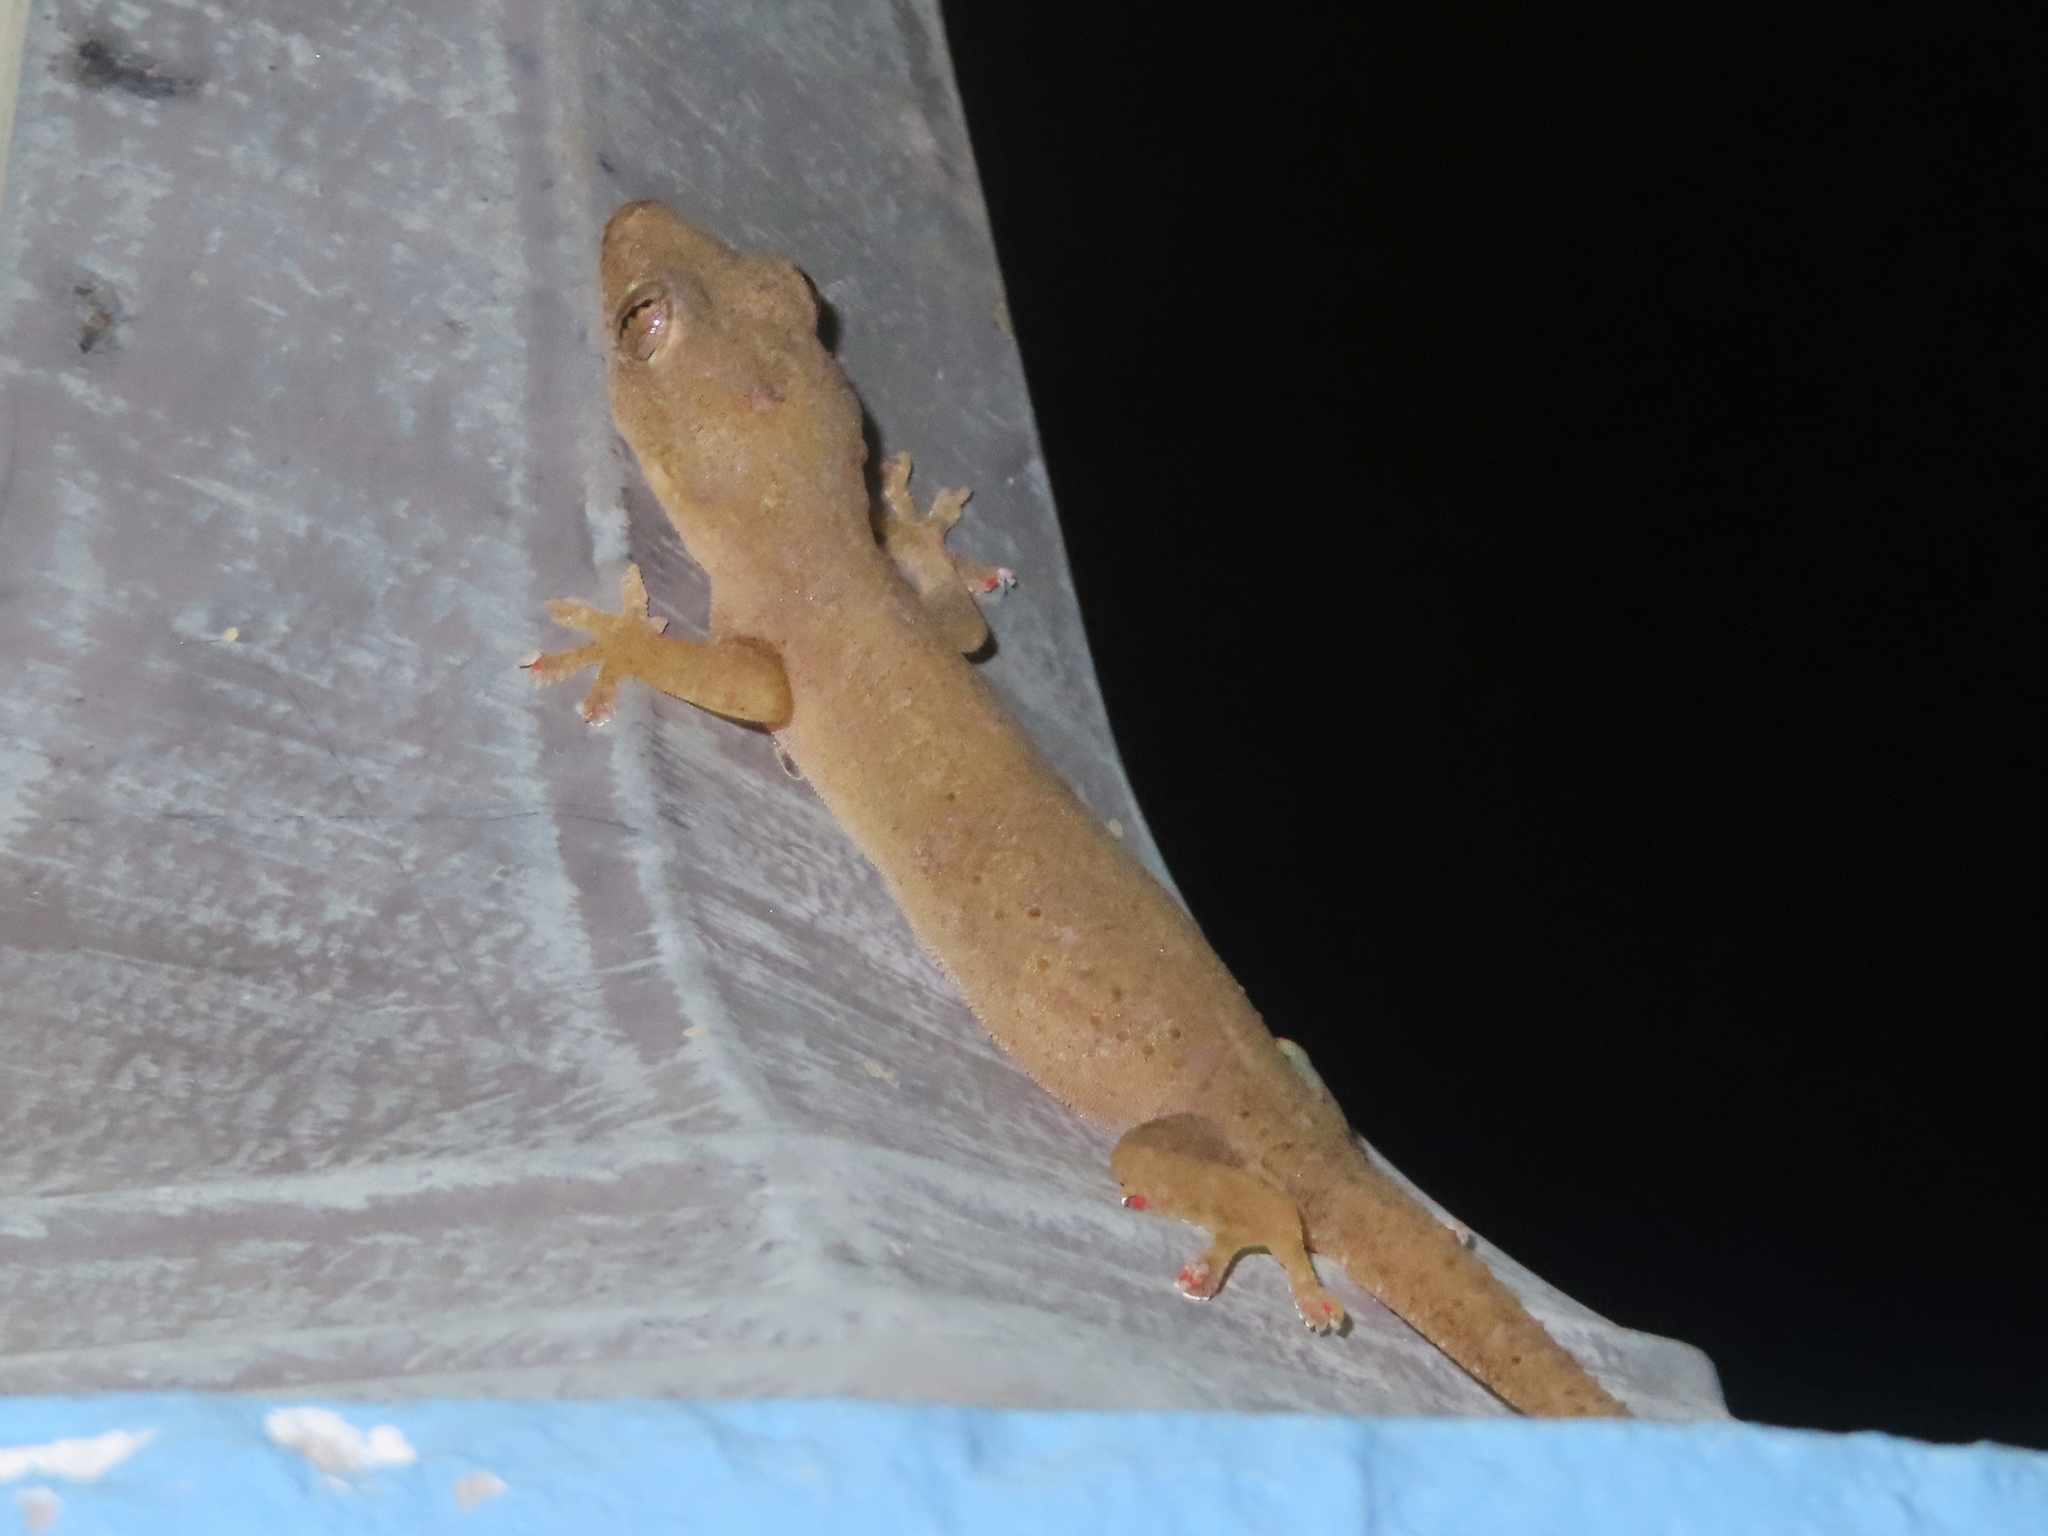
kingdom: Animalia
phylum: Chordata
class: Squamata
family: Gekkonidae
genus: Hemidactylus
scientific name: Hemidactylus frenatus
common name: Common house gecko
